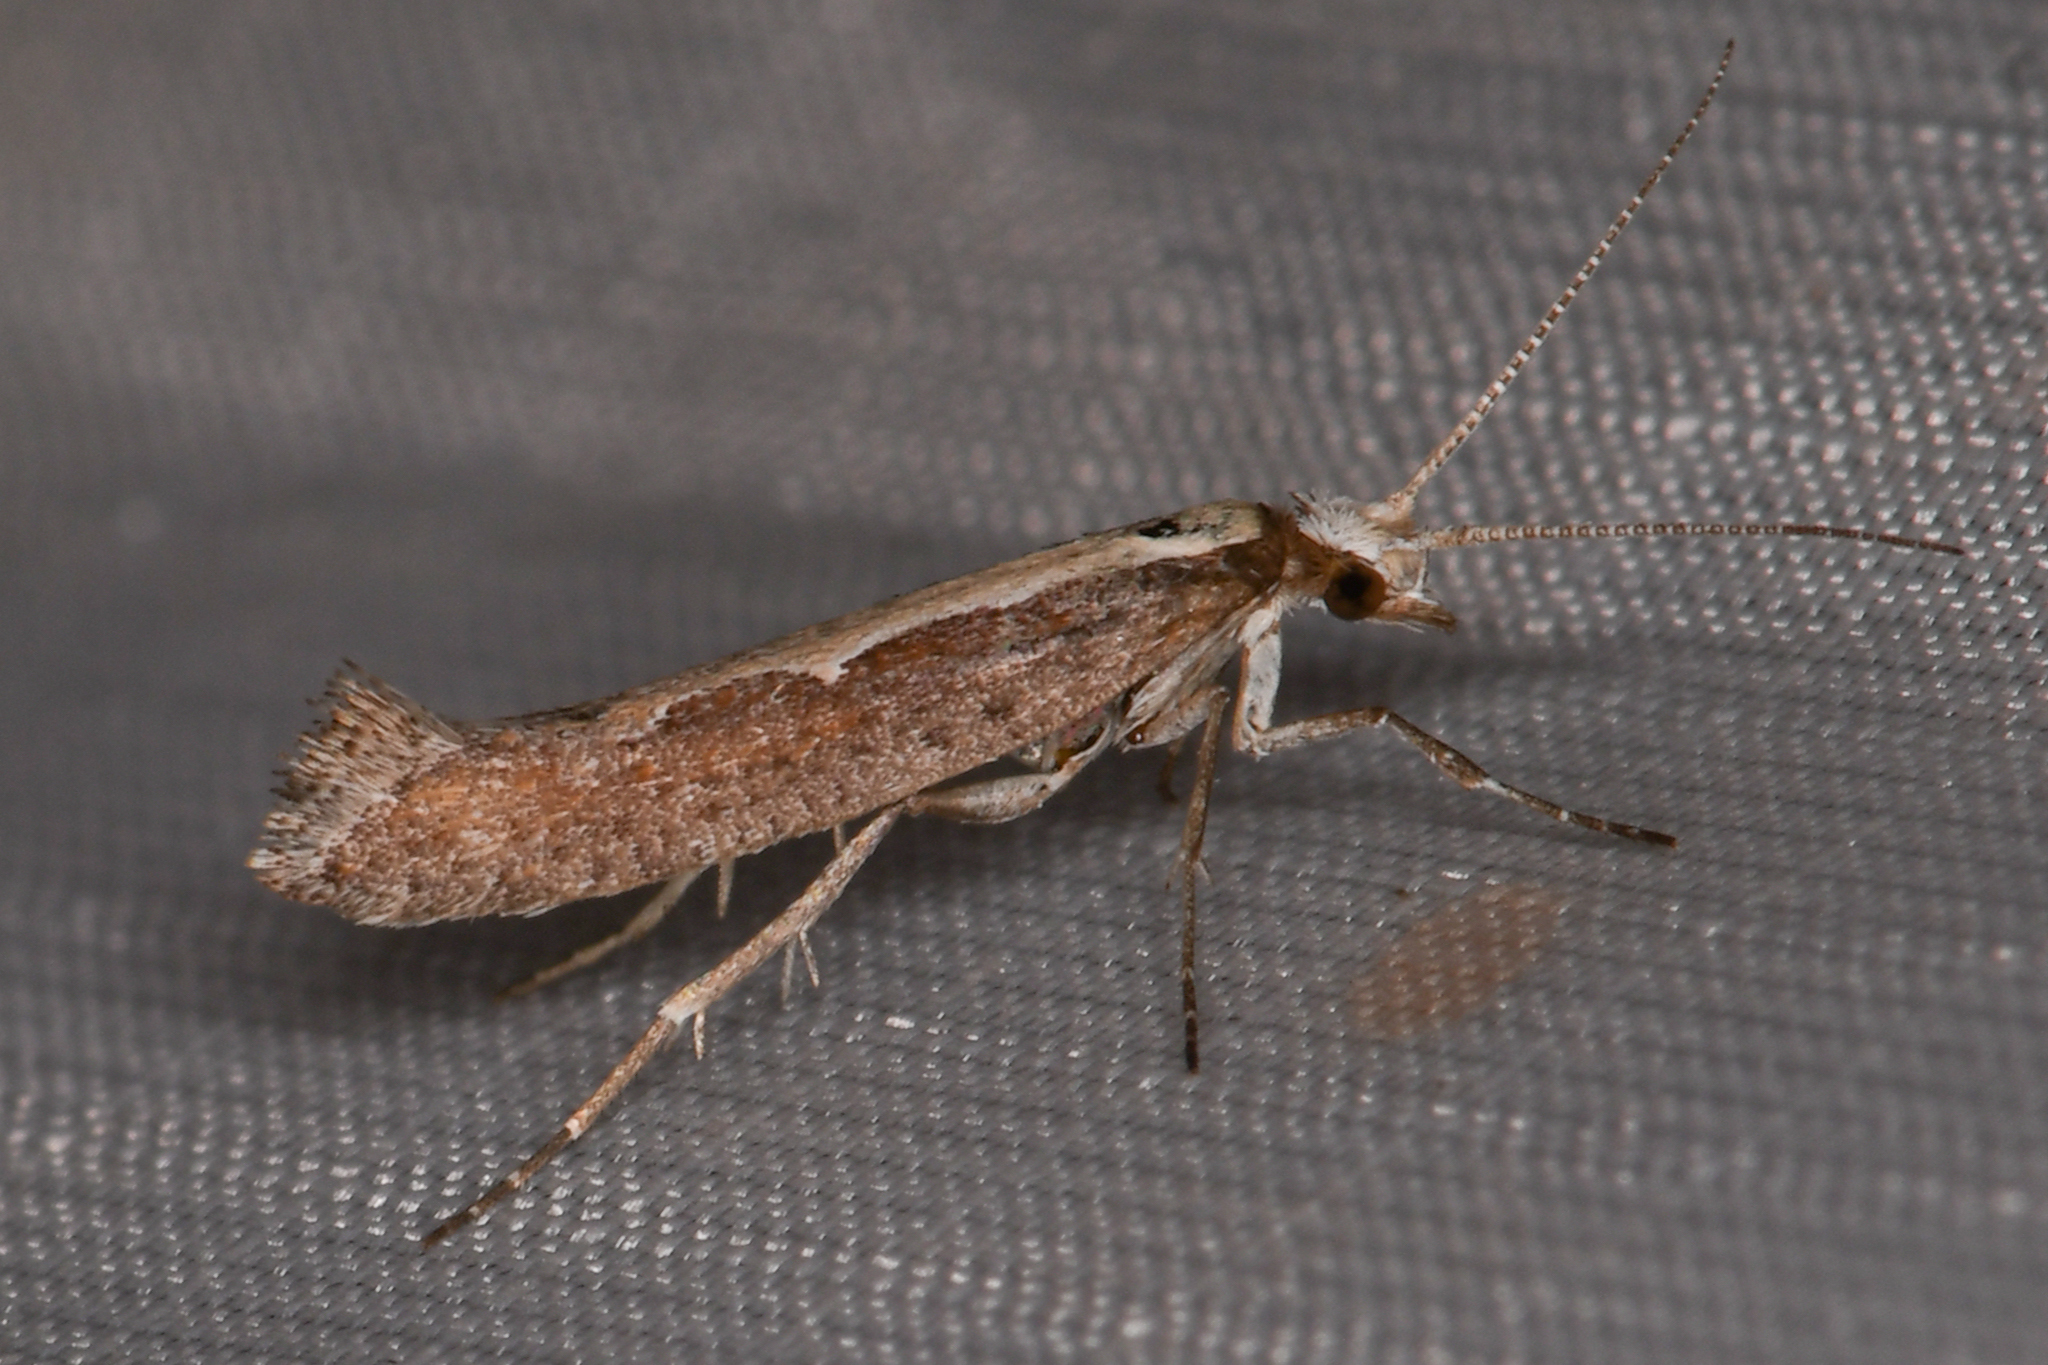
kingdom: Animalia
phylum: Arthropoda
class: Insecta
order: Lepidoptera
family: Plutellidae
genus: Plutella
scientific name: Plutella xylostella
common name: Diamond-back moth
